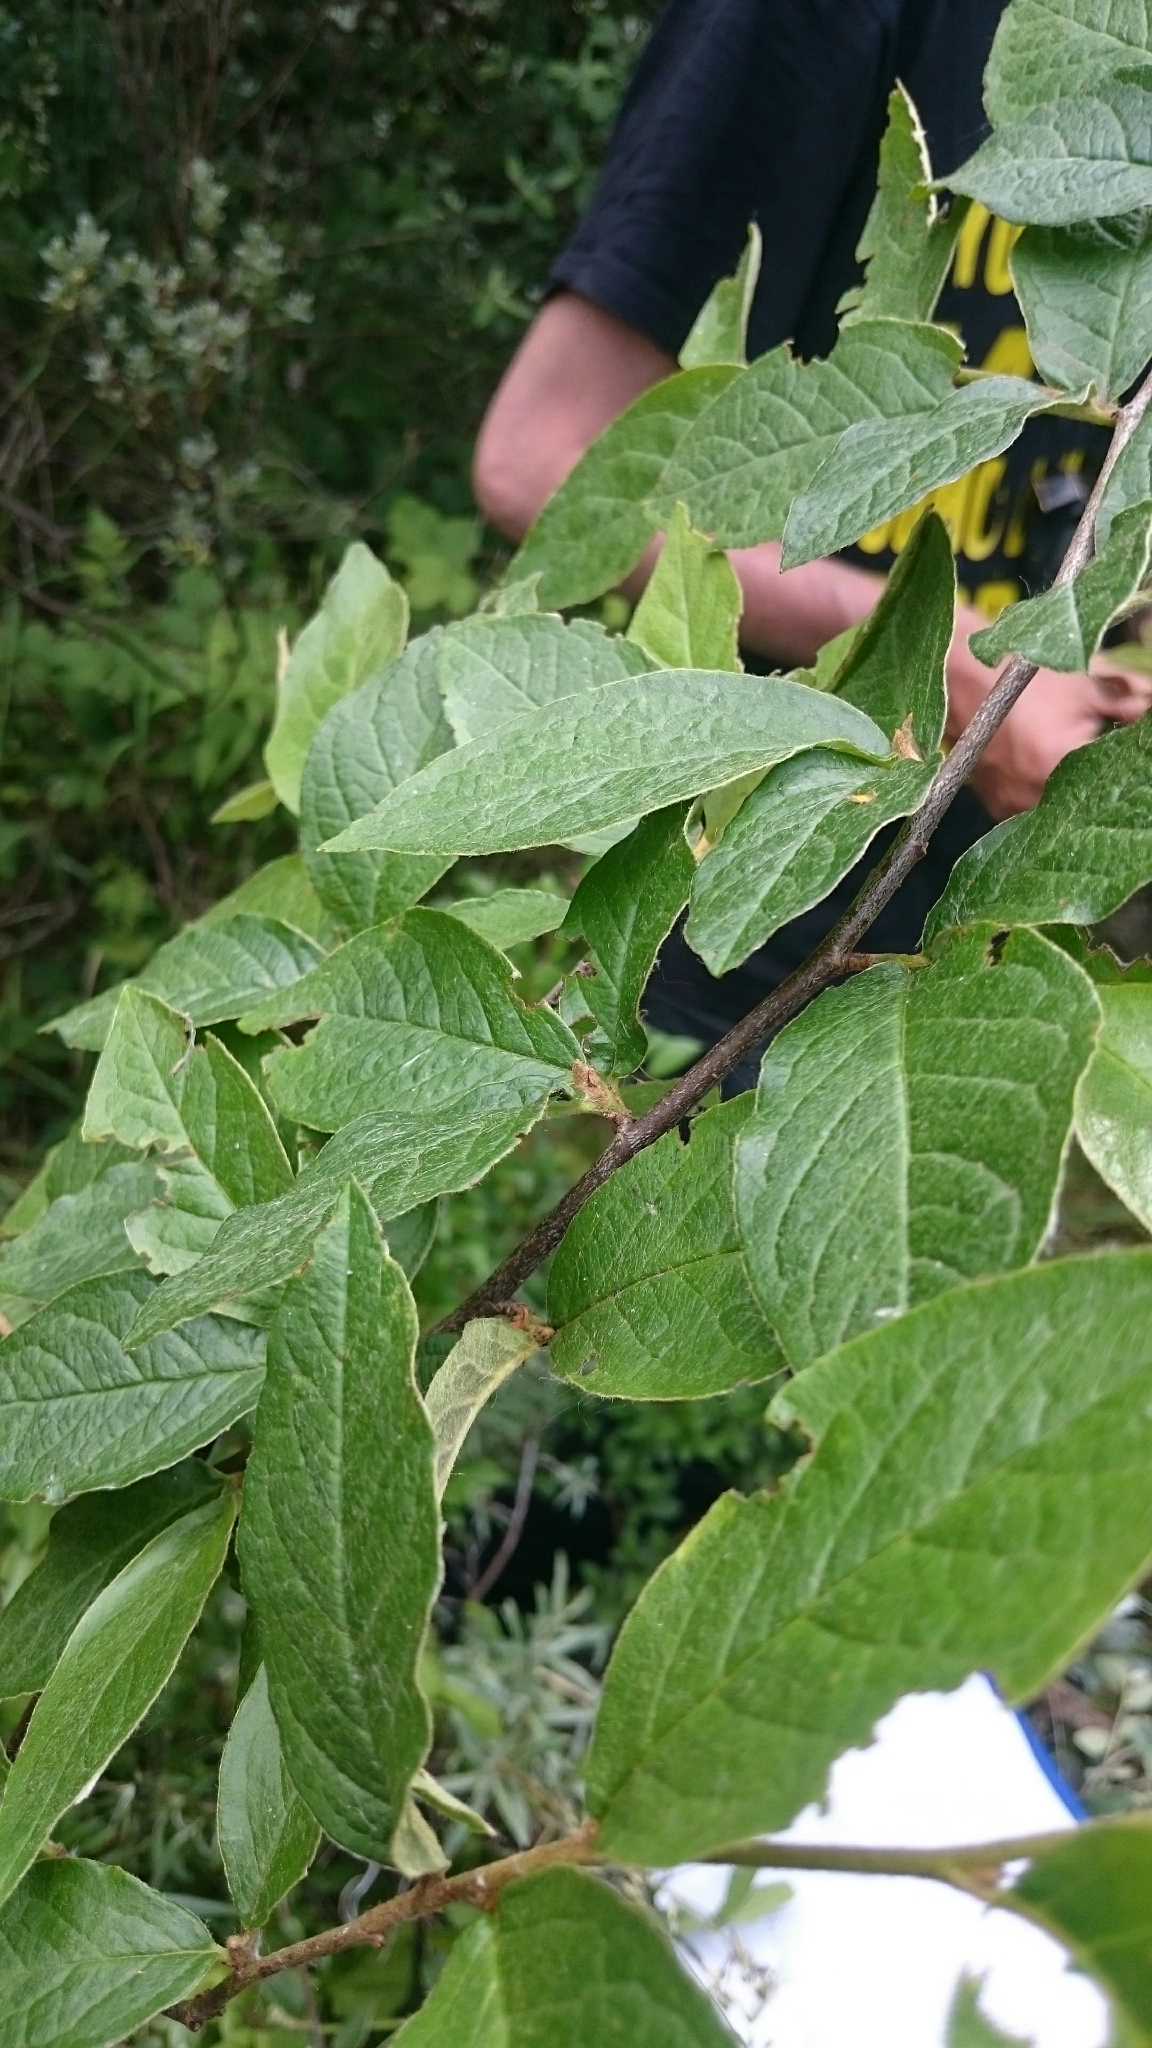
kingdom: Plantae
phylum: Tracheophyta
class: Magnoliopsida
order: Rosales
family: Rosaceae
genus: Cotoneaster
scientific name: Cotoneaster bullatus
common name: Hollyberry cotoneaster
